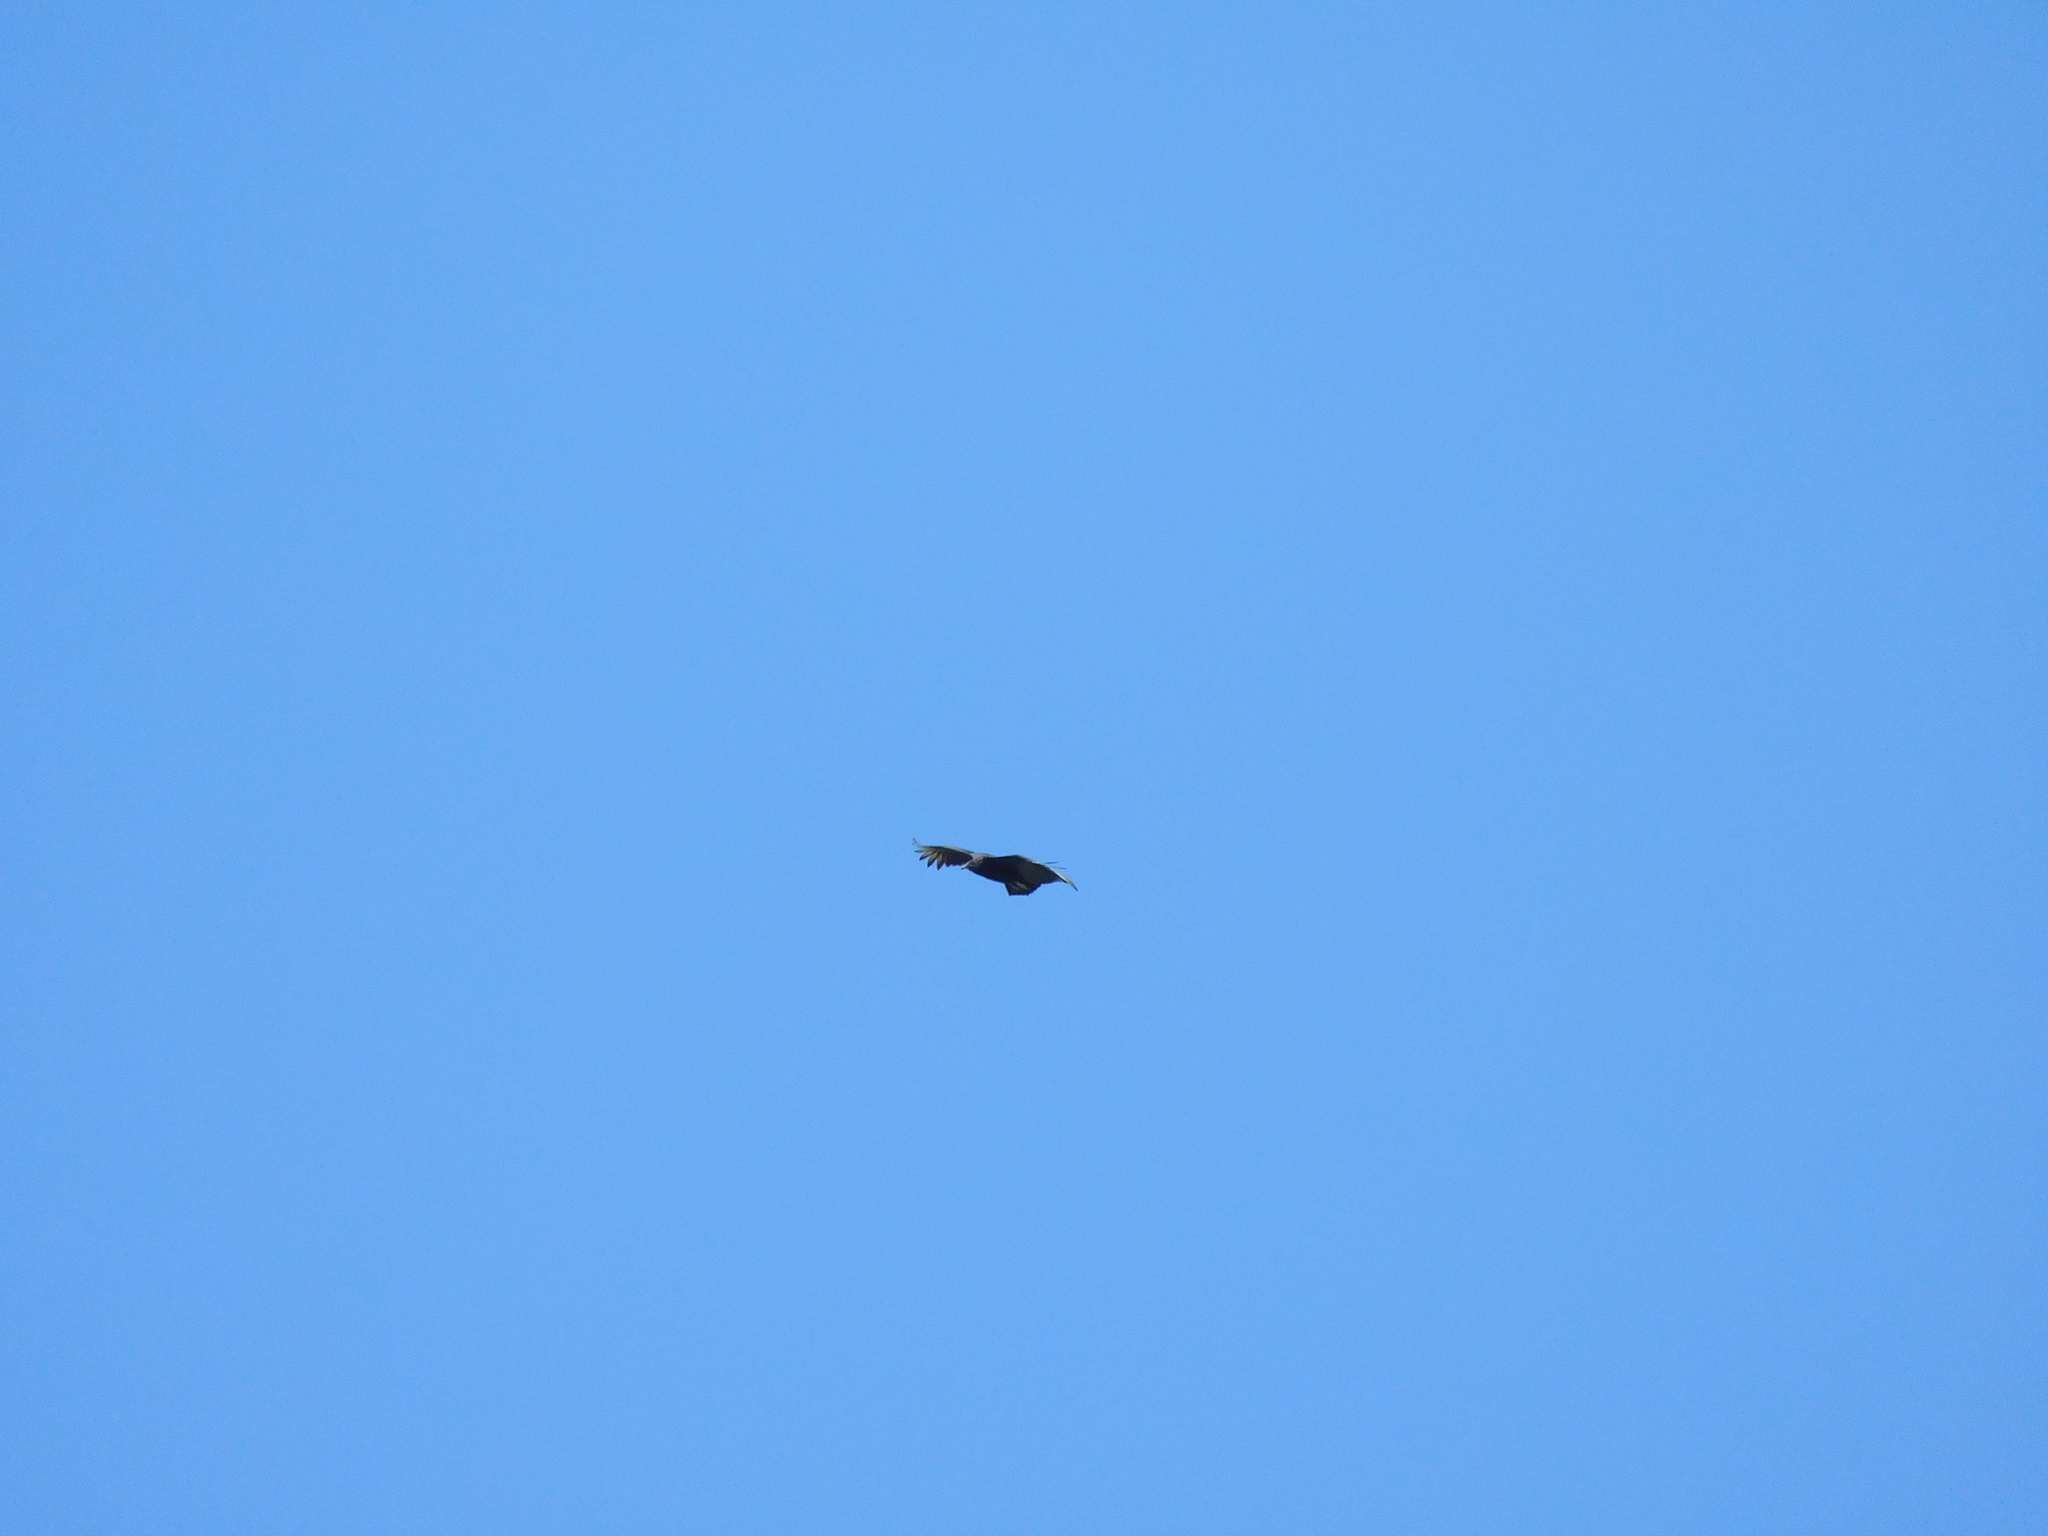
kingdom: Animalia
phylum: Chordata
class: Aves
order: Accipitriformes
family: Cathartidae
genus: Coragyps
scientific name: Coragyps atratus
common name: Black vulture
